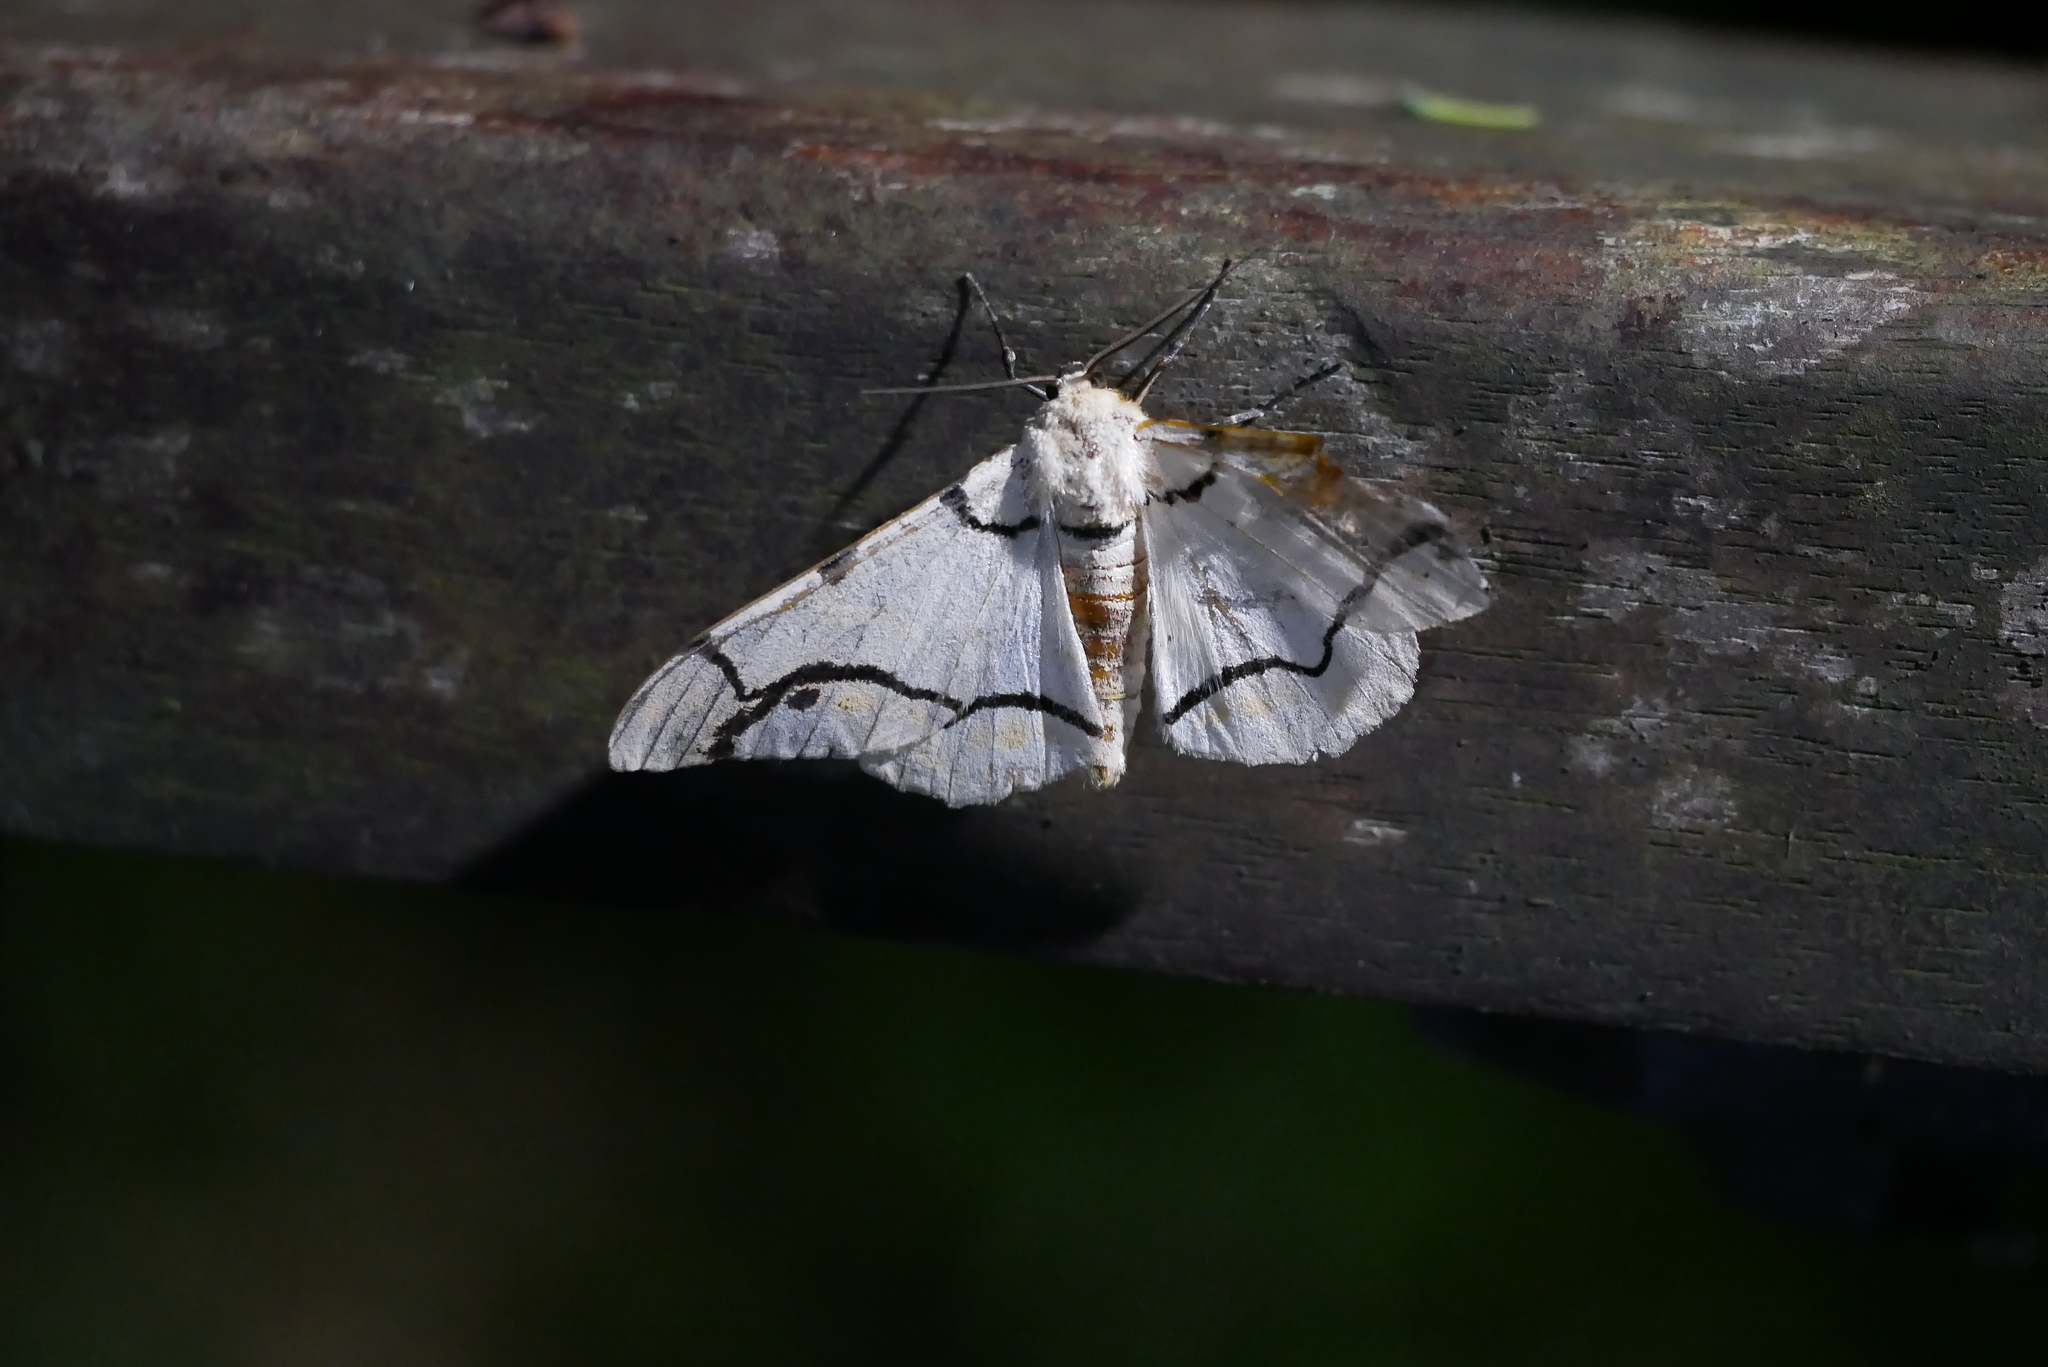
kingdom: Animalia
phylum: Arthropoda
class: Insecta
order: Lepidoptera
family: Geometridae
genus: Biston
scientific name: Biston perclara
